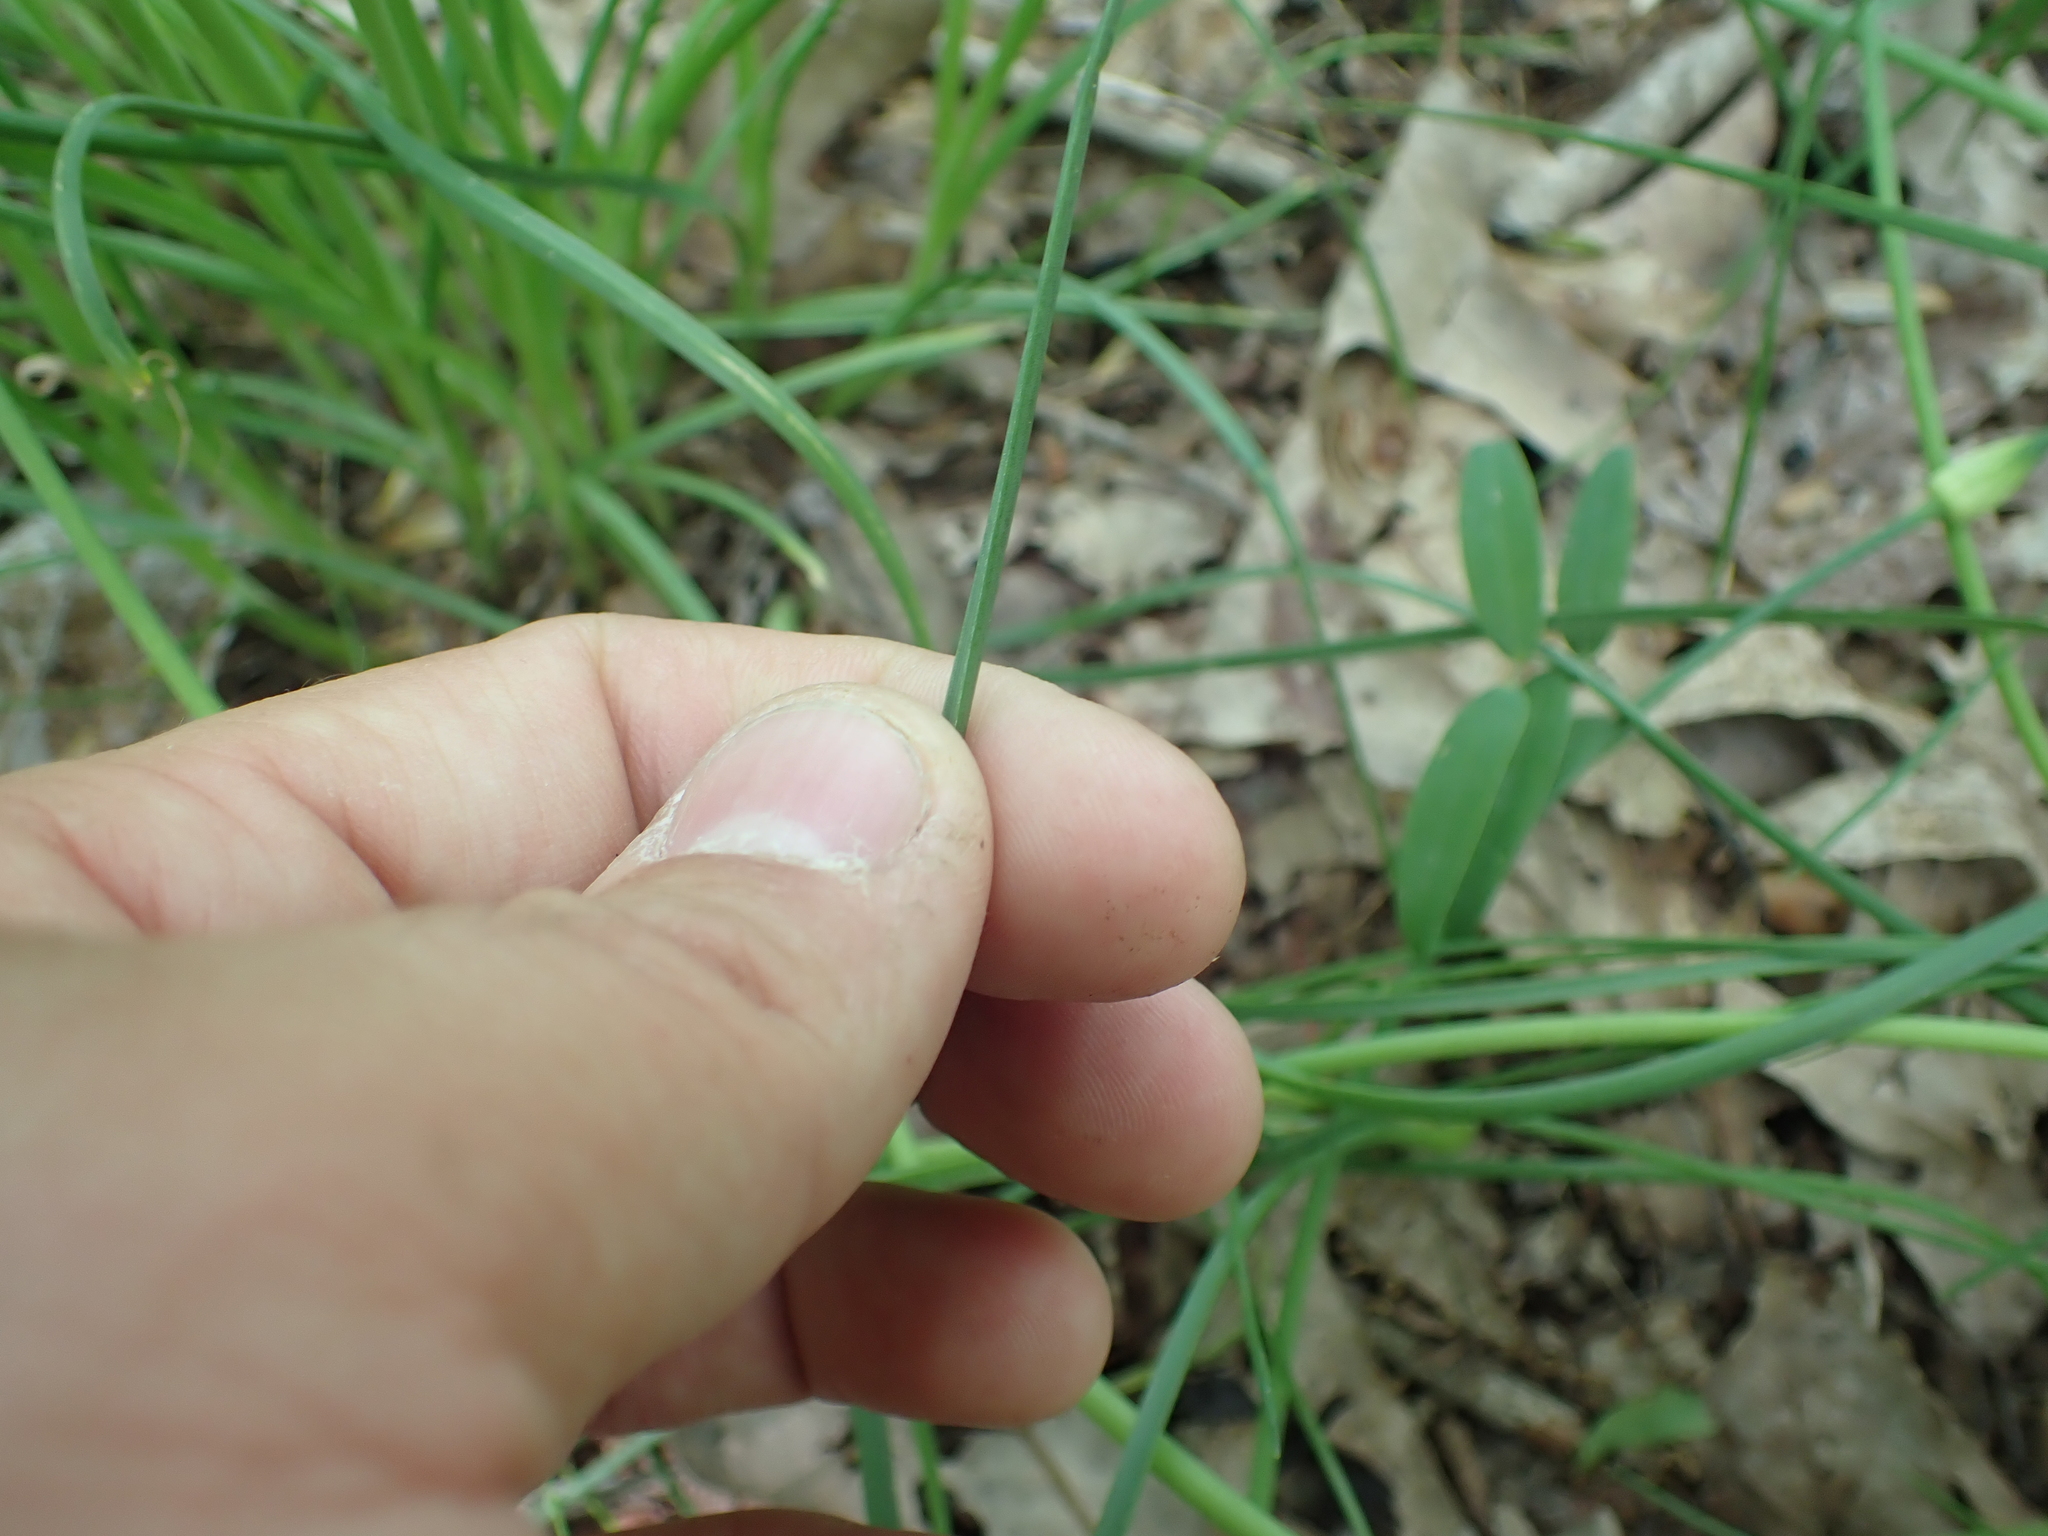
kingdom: Plantae
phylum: Tracheophyta
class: Liliopsida
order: Asparagales
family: Amaryllidaceae
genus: Allium
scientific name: Allium canadense
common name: Meadow garlic
